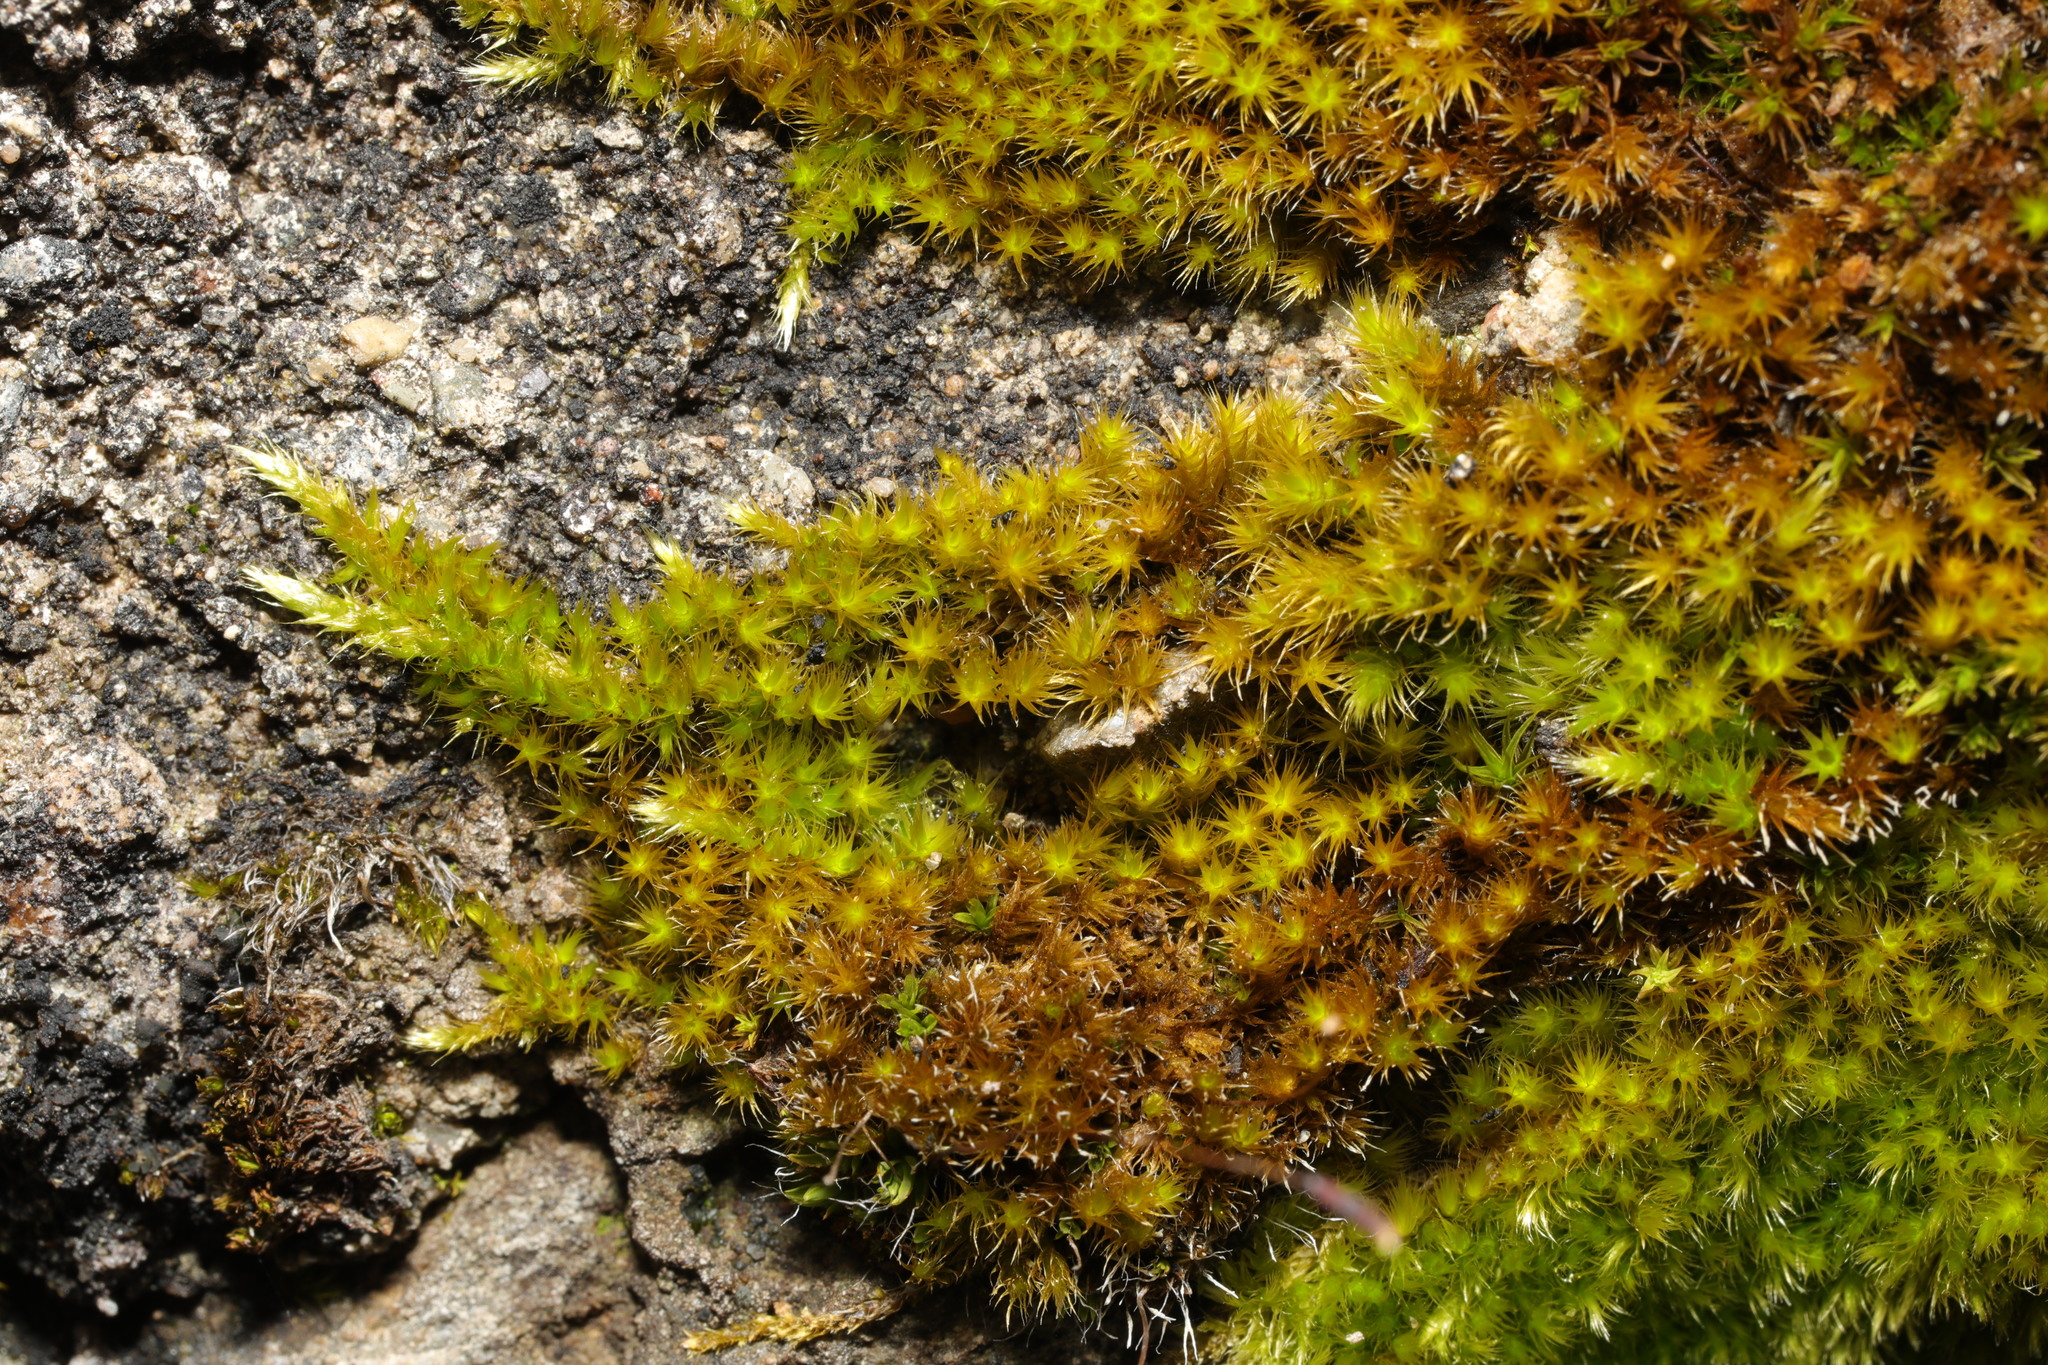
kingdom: Plantae
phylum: Bryophyta
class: Bryopsida
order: Hypnales
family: Brachytheciaceae
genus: Homalothecium
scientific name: Homalothecium sericeum
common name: Silky wall feather-moss
